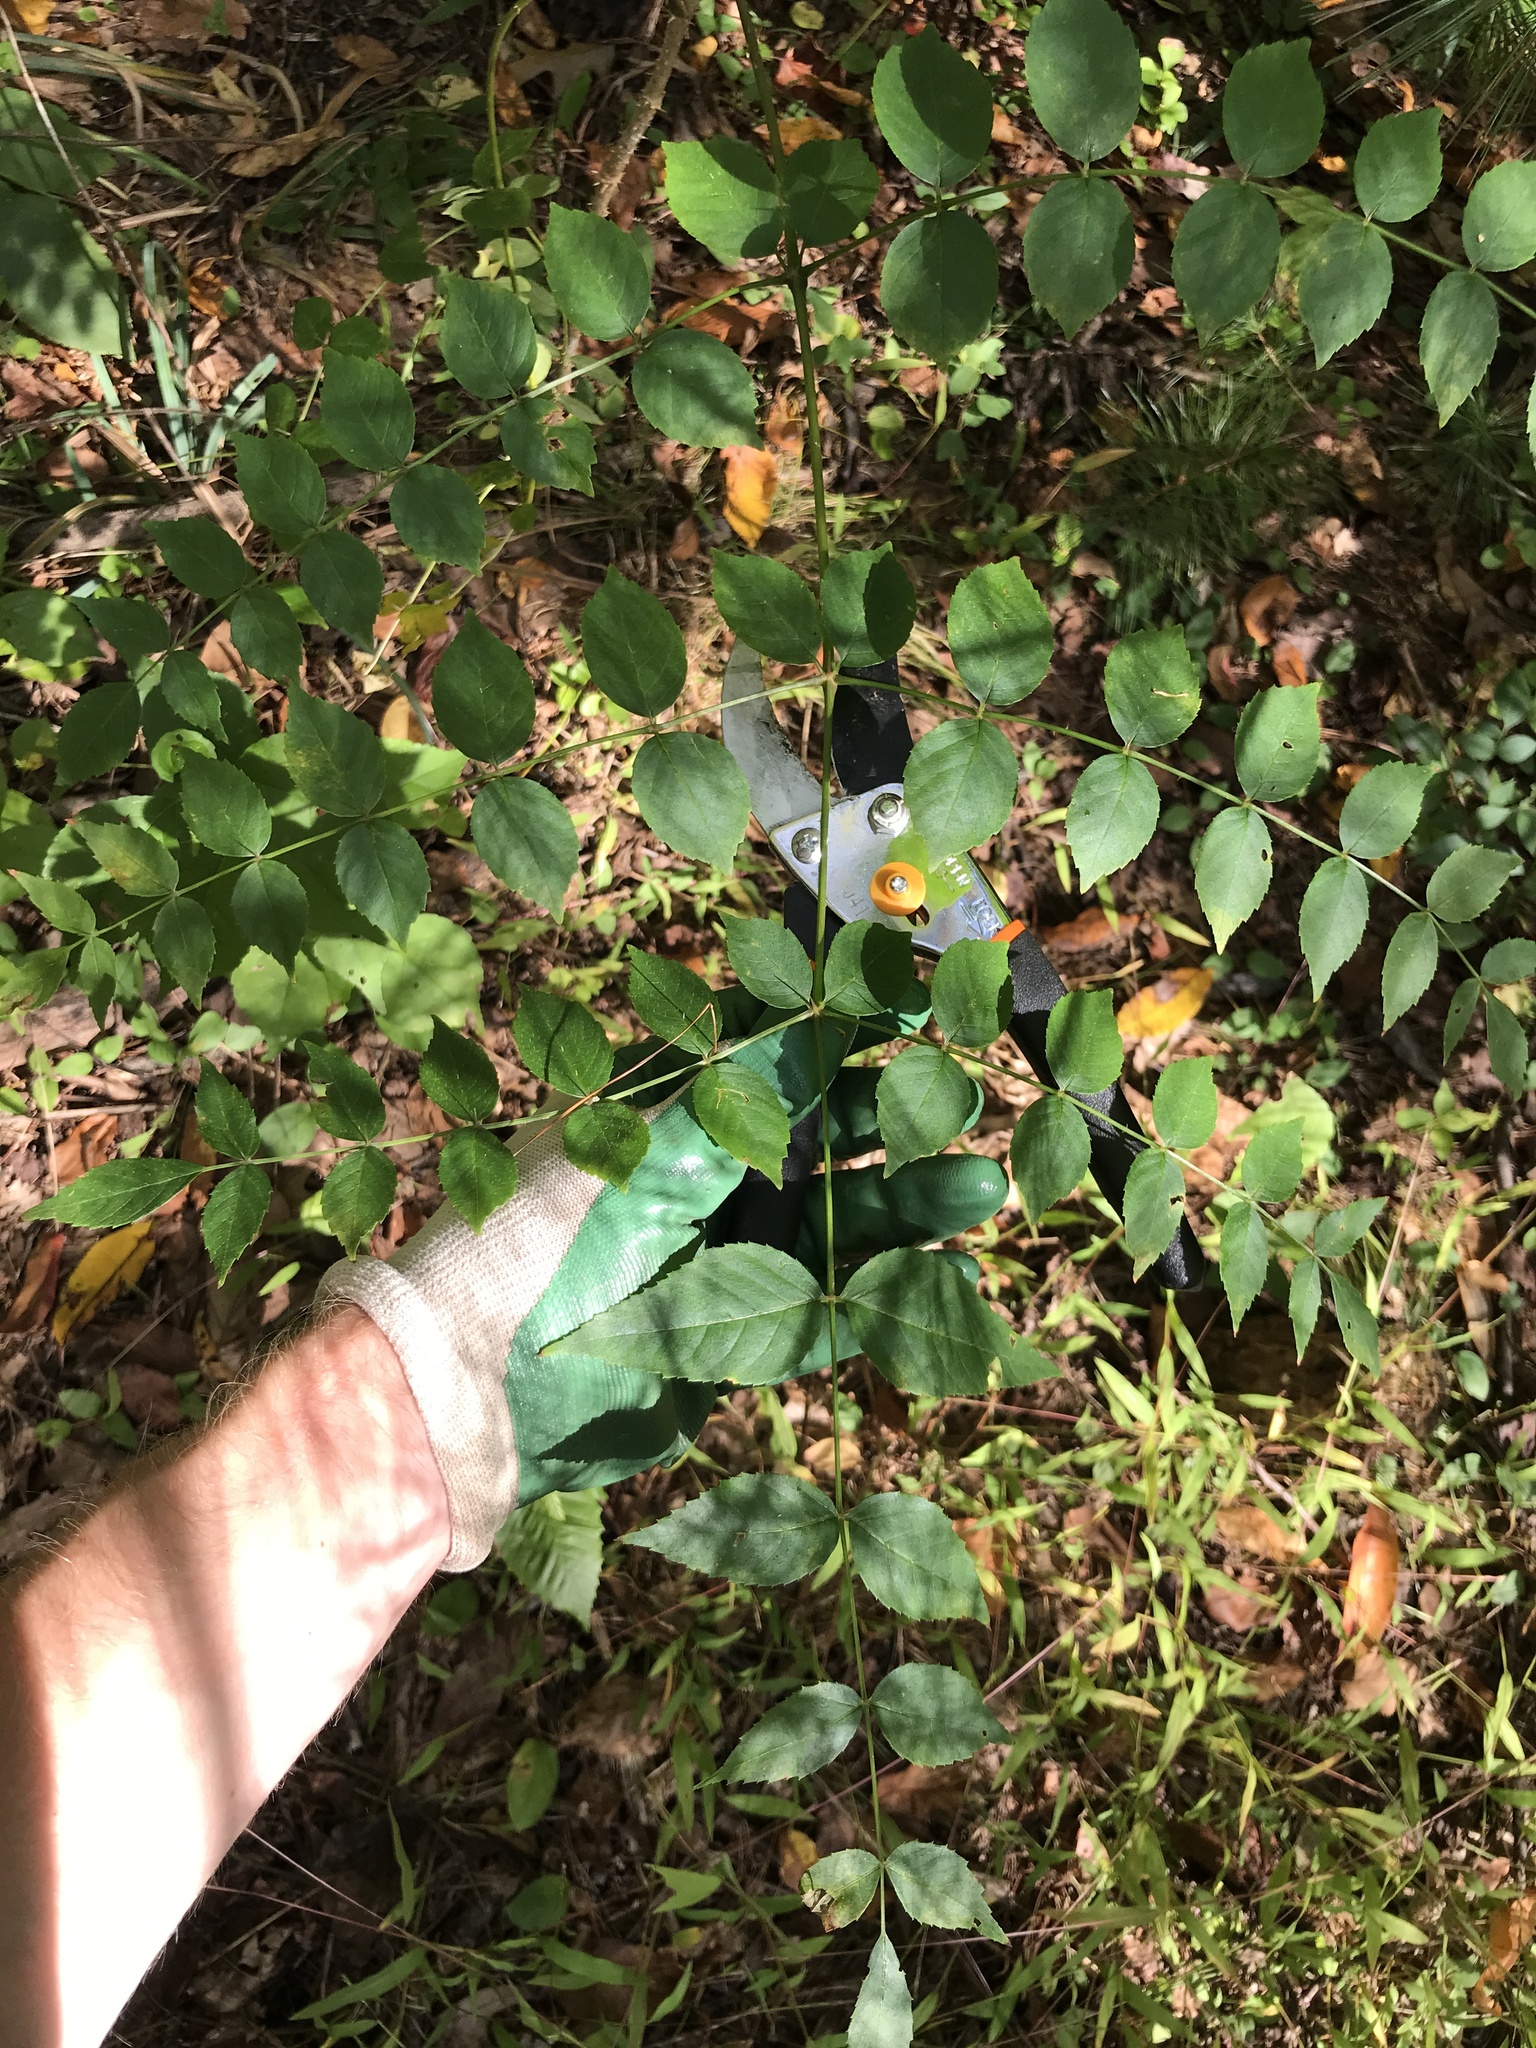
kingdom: Plantae
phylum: Tracheophyta
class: Magnoliopsida
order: Apiales
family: Araliaceae
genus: Aralia
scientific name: Aralia elata
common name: Japanese angelica-tree
